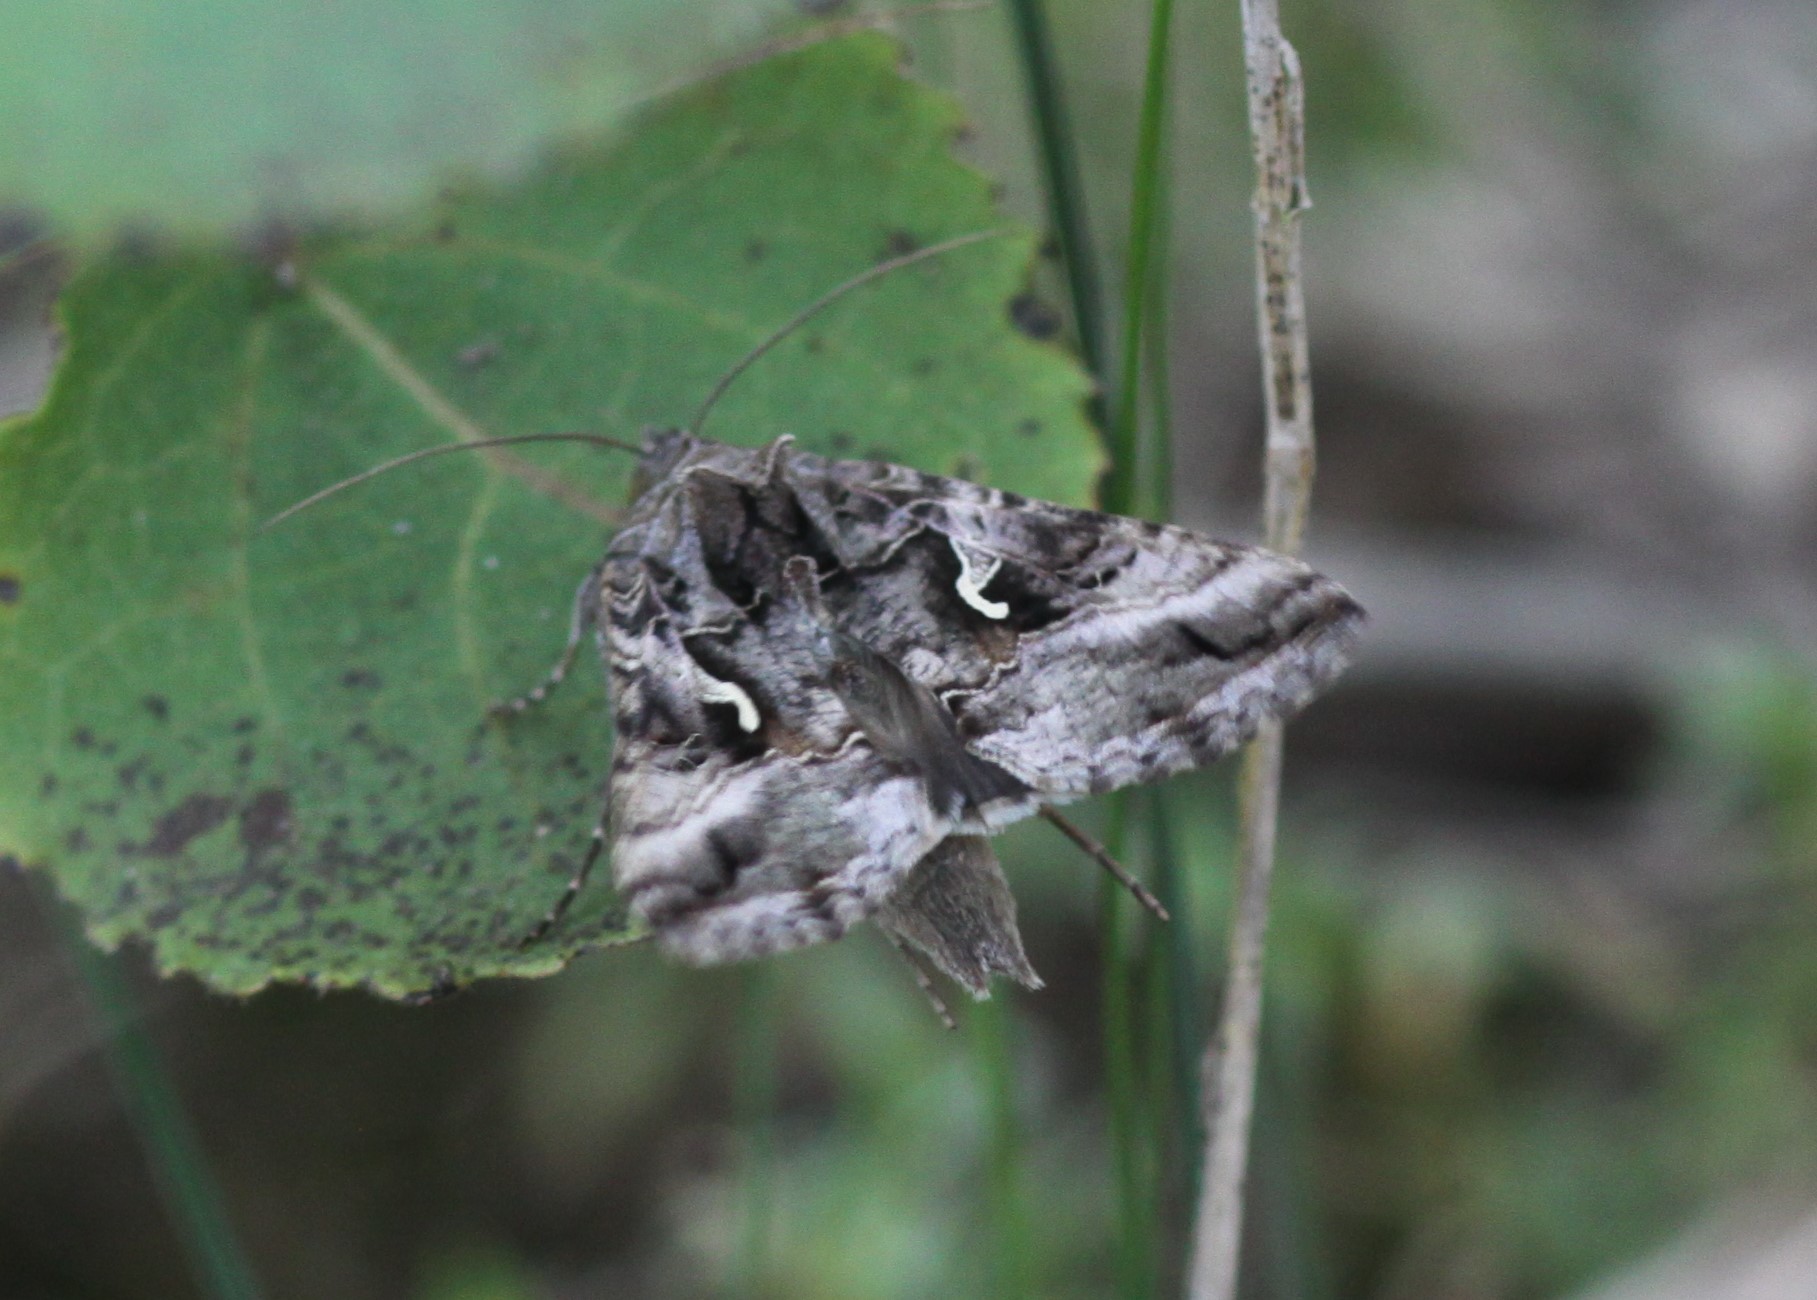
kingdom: Animalia
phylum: Arthropoda
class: Insecta
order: Lepidoptera
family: Noctuidae
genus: Autographa
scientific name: Autographa gamma
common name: Silver y
